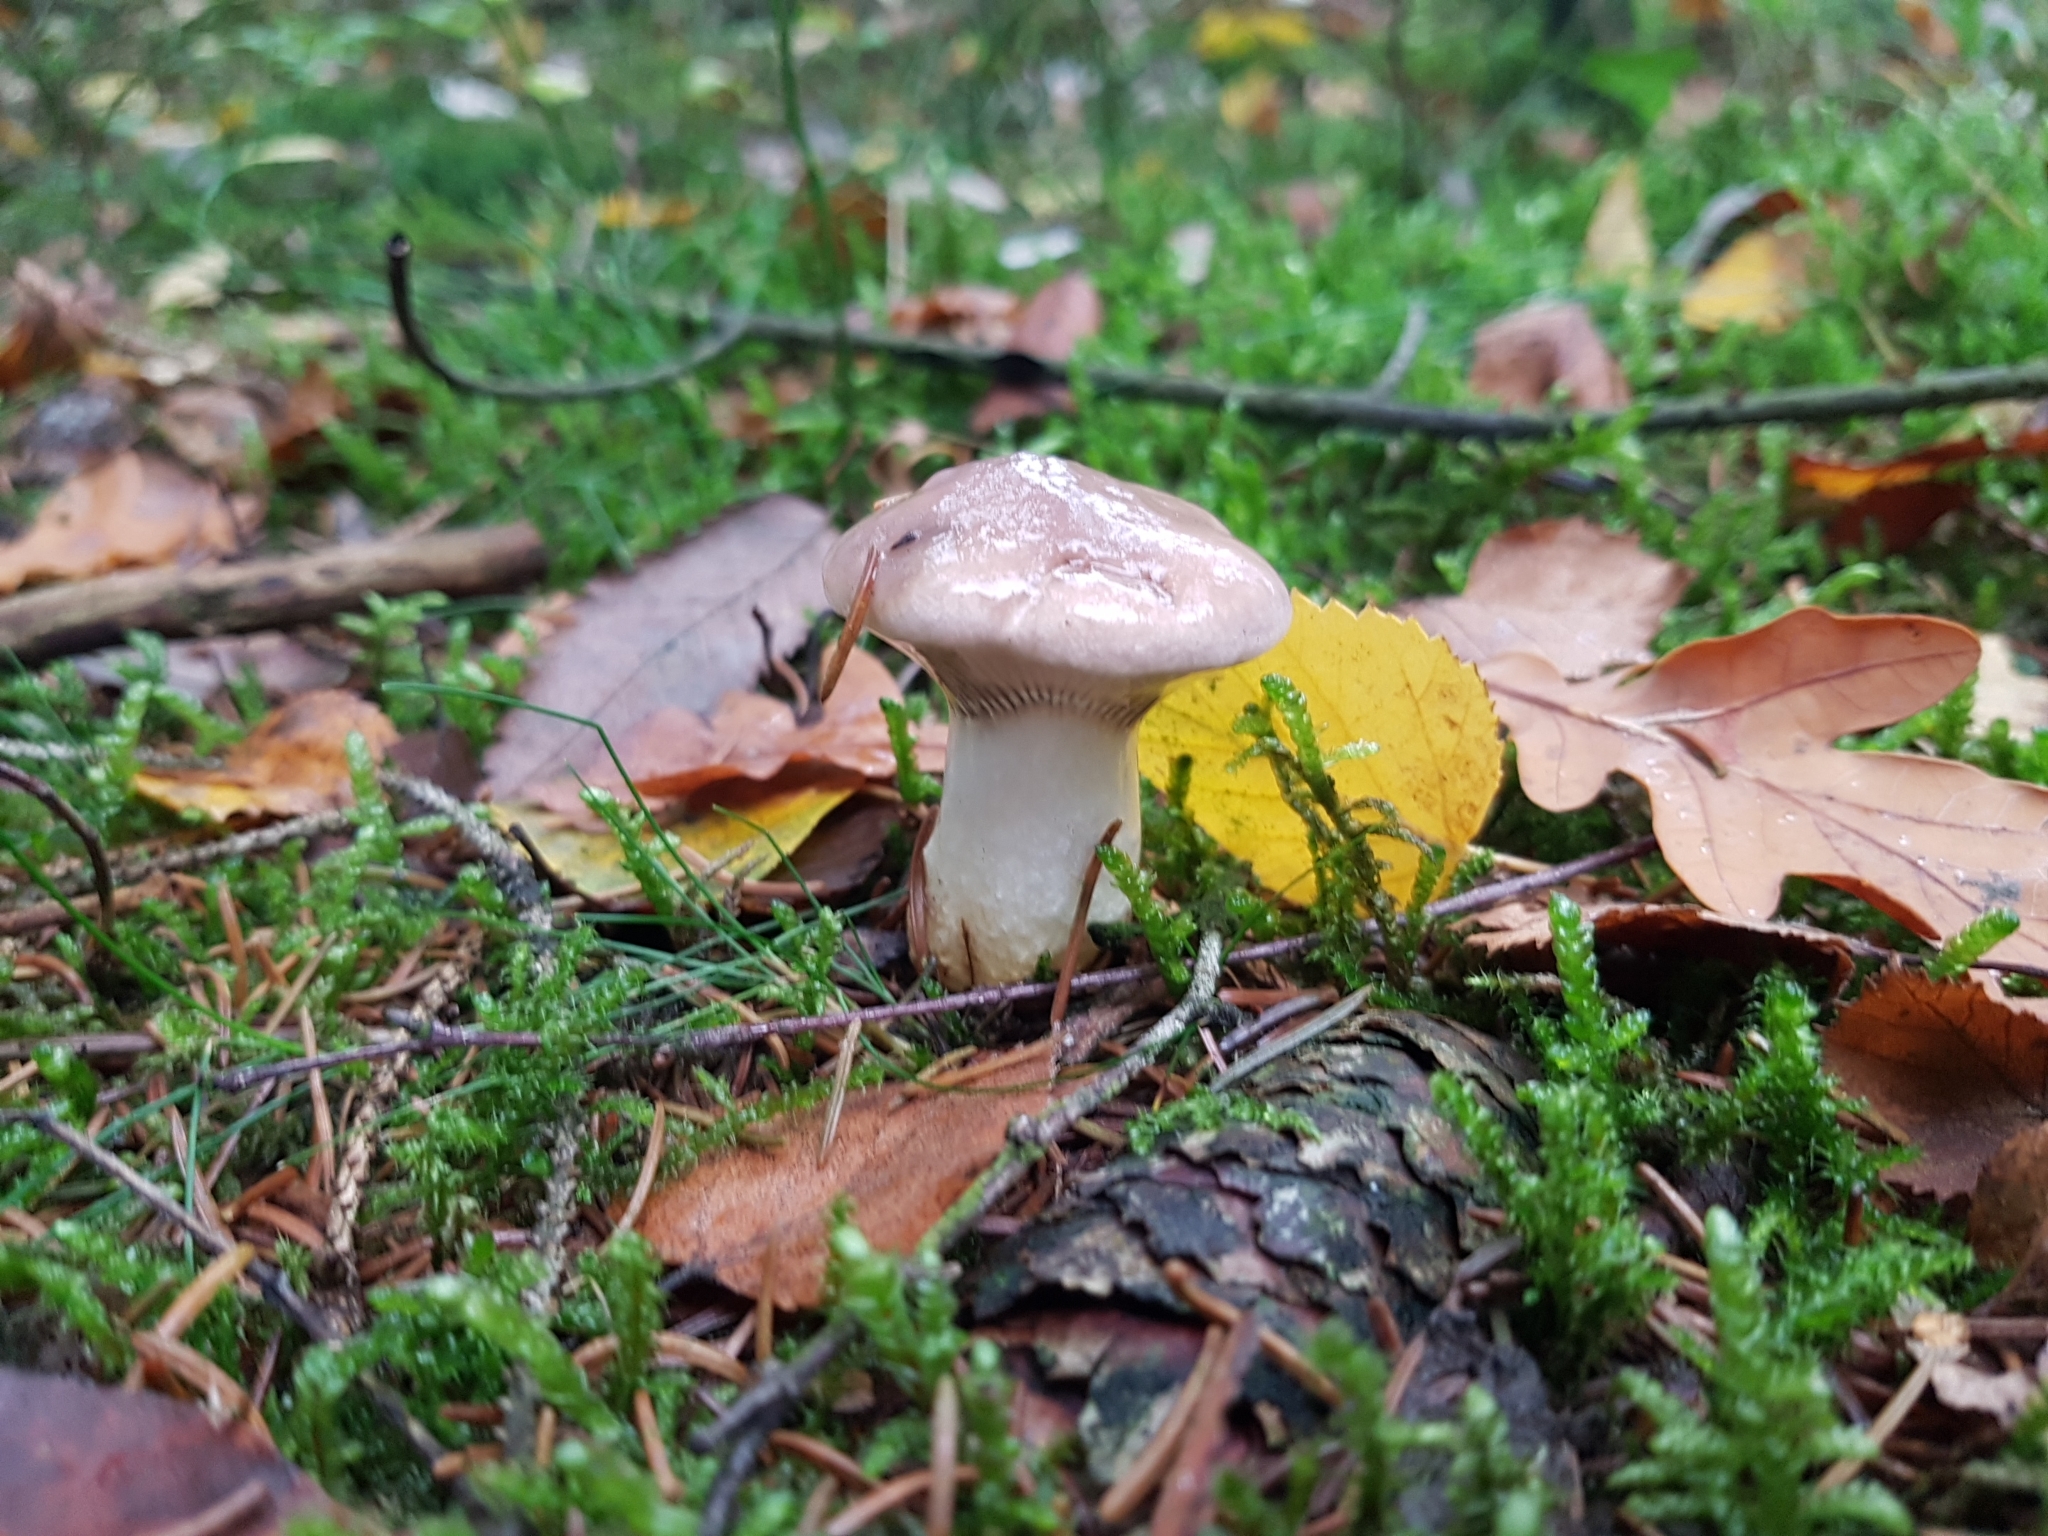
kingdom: Fungi
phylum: Basidiomycota
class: Agaricomycetes
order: Boletales
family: Gomphidiaceae
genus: Gomphidius
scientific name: Gomphidius glutinosus
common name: Slimy spike
